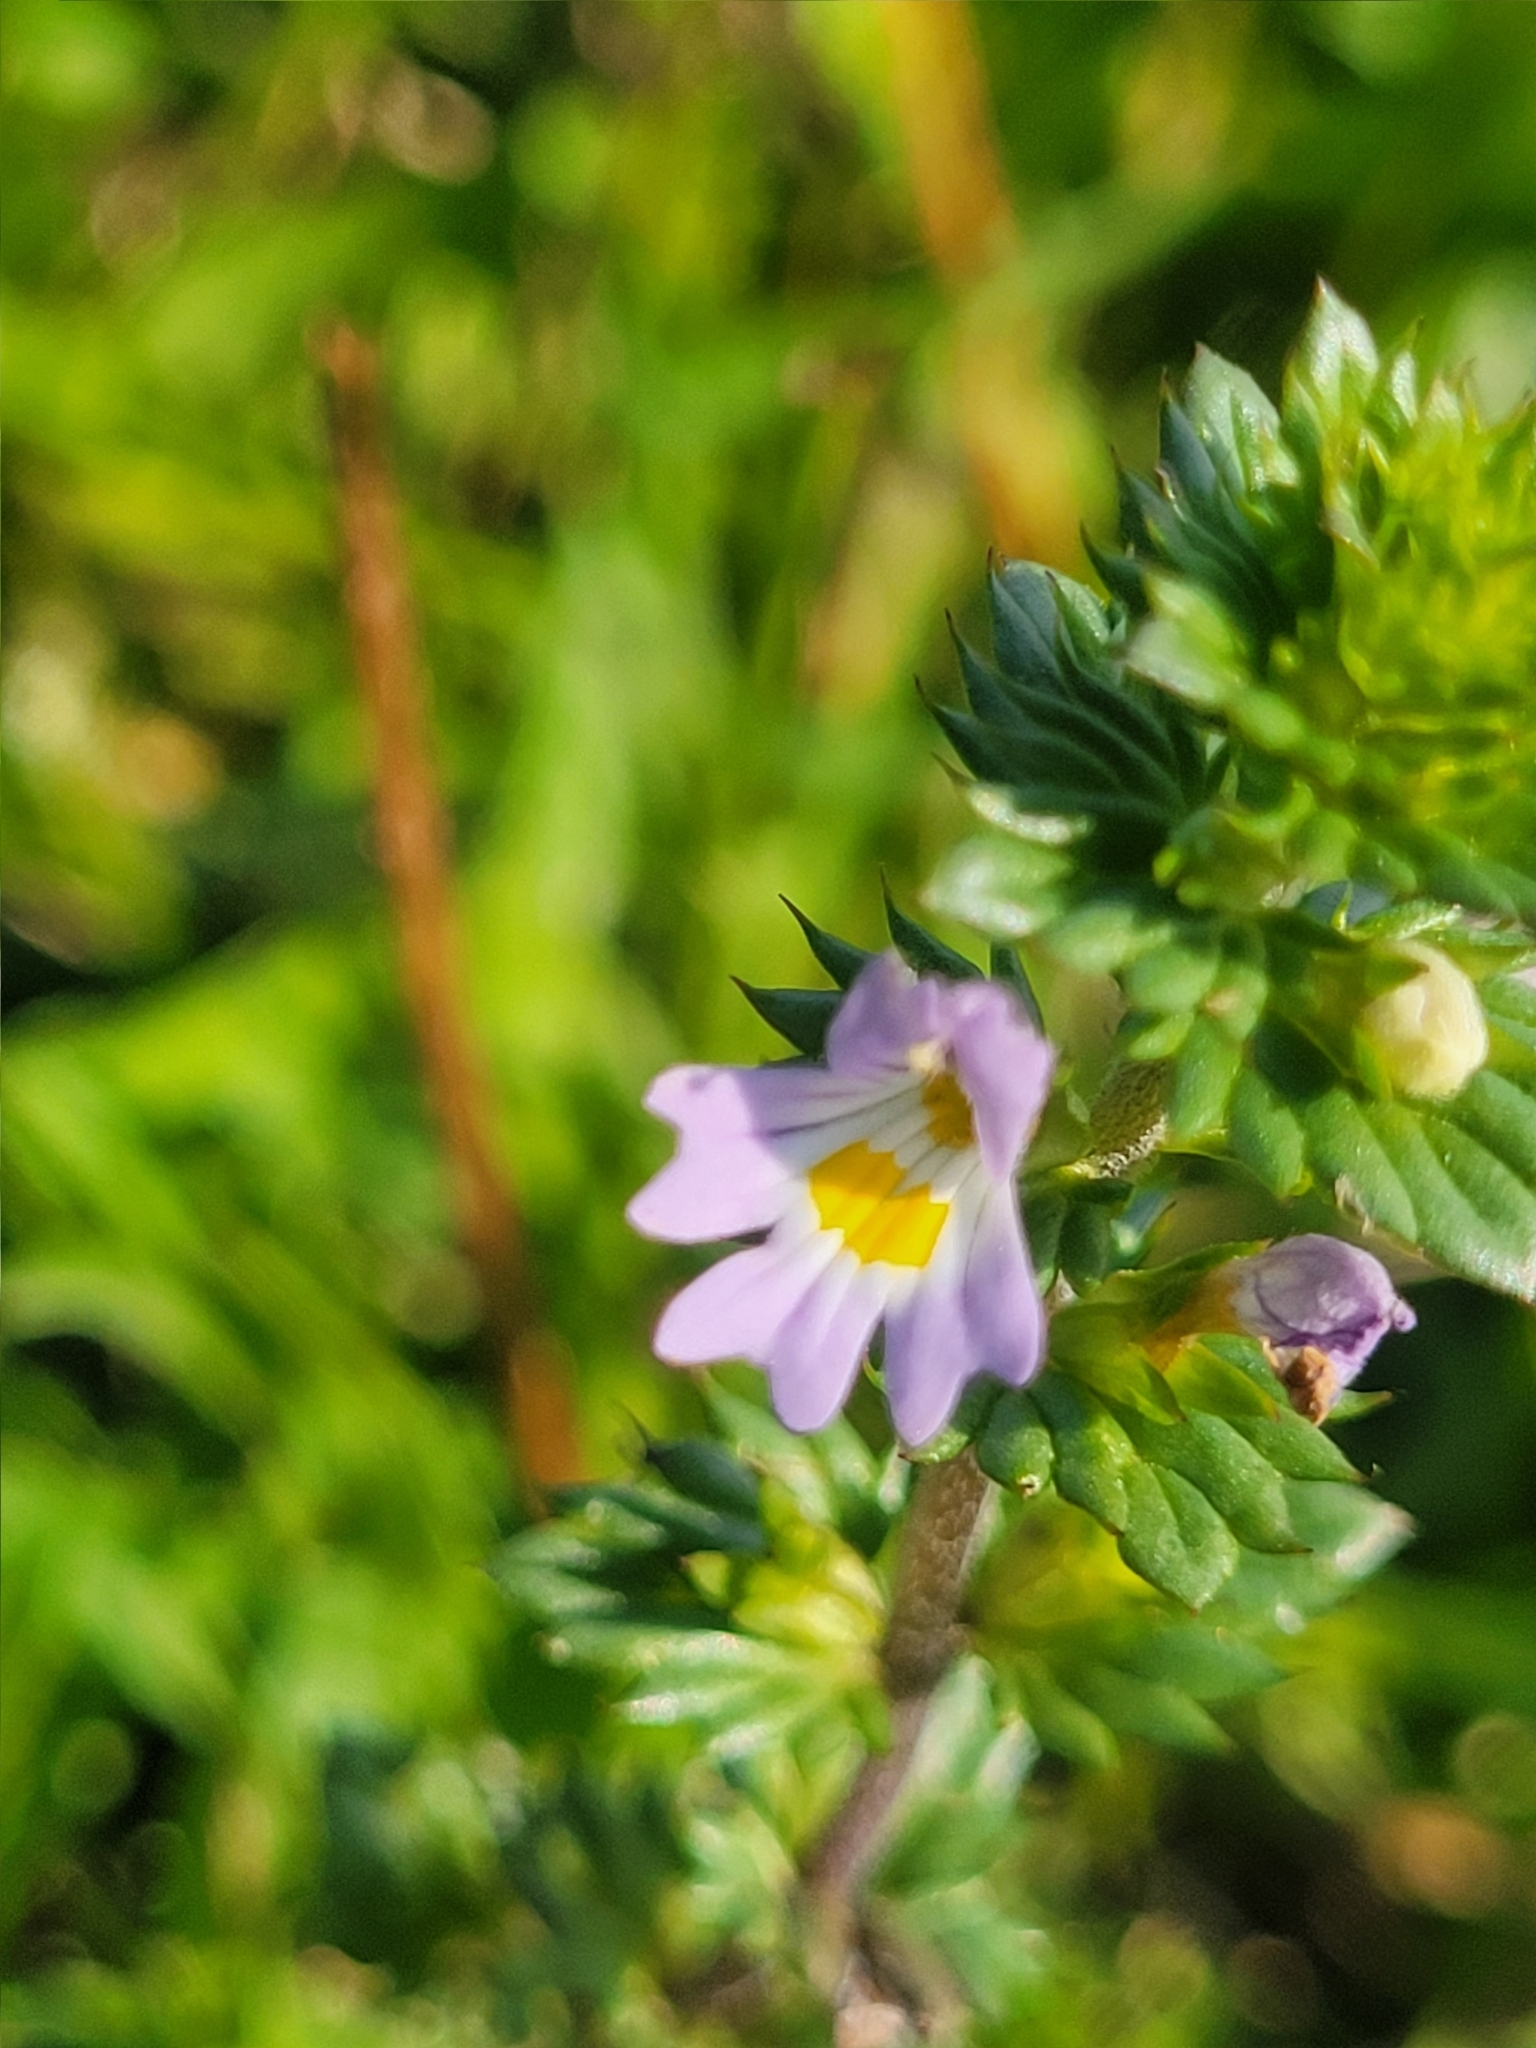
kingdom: Plantae
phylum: Tracheophyta
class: Magnoliopsida
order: Lamiales
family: Orobanchaceae
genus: Euphrasia
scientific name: Euphrasia nemorosa
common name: Common eyebright
